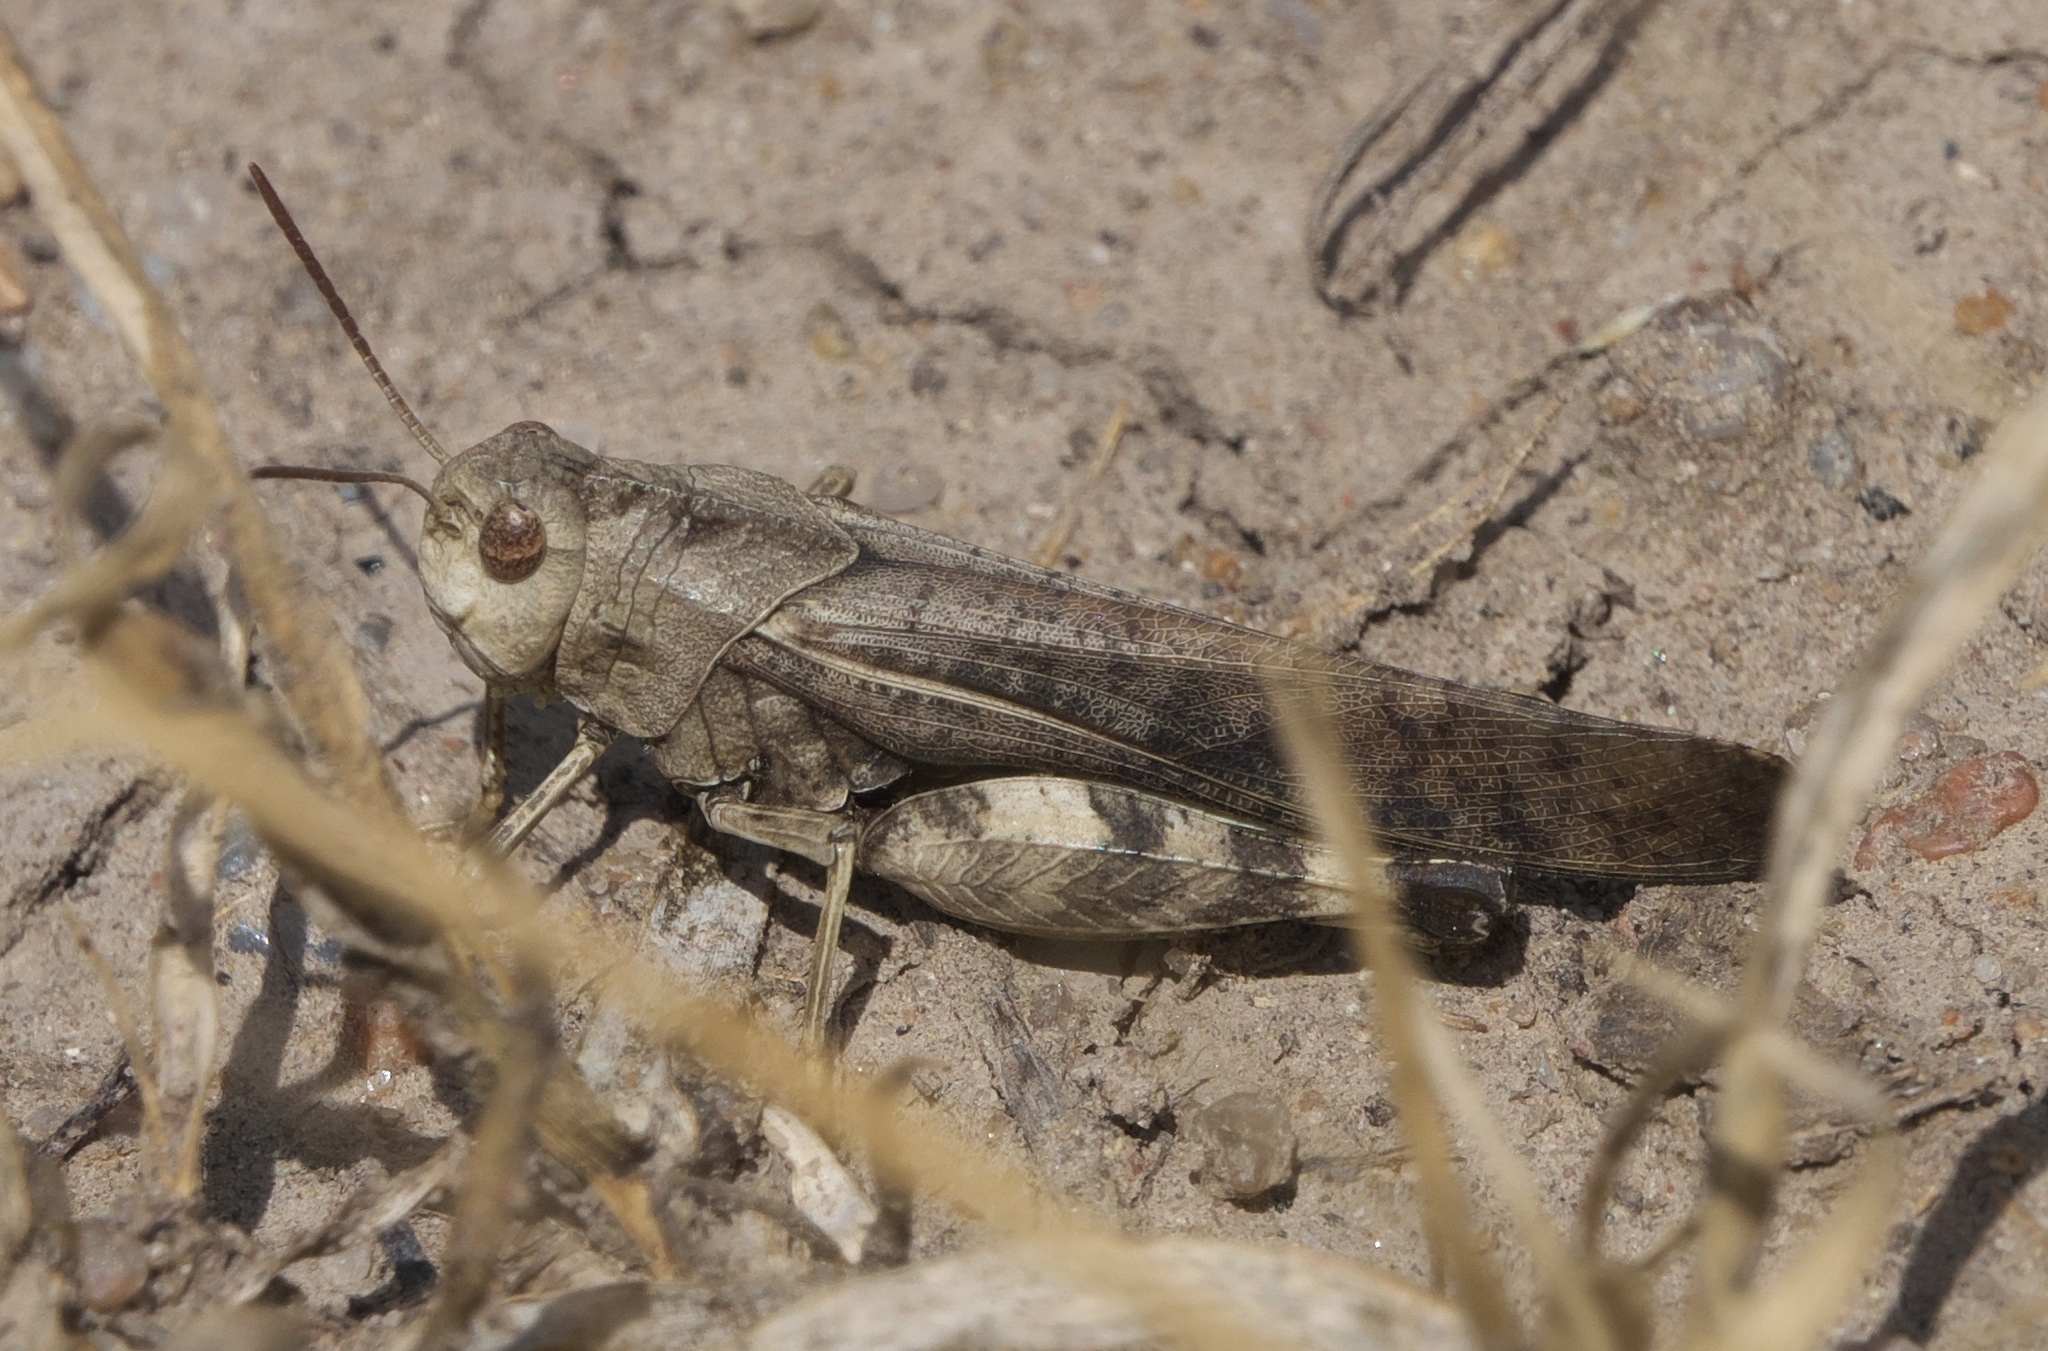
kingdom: Animalia
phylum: Arthropoda
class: Insecta
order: Orthoptera
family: Acrididae
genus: Arphia
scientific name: Arphia simplex
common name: Plains yellow-winged grasshopper
